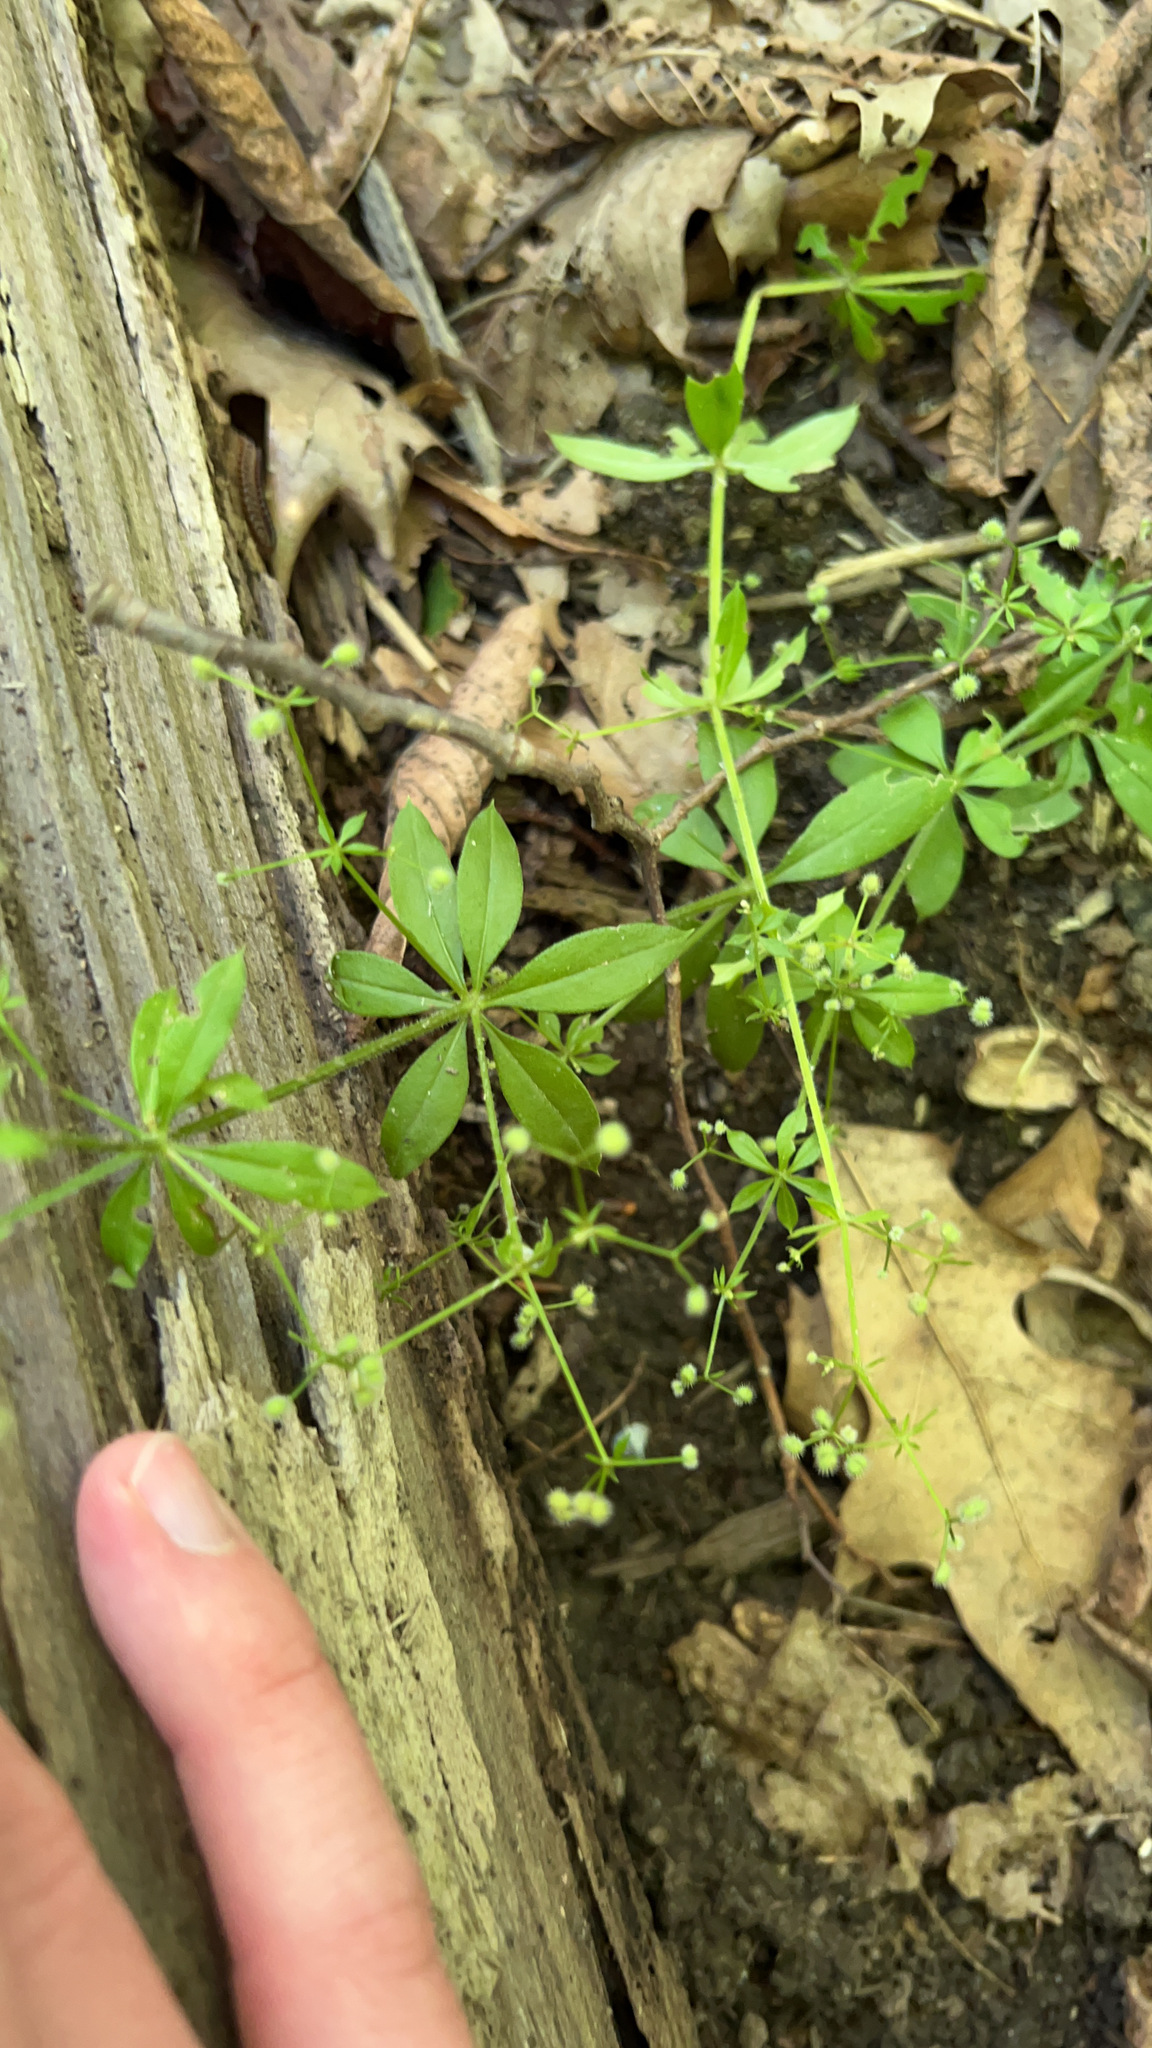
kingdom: Plantae
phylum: Tracheophyta
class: Magnoliopsida
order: Gentianales
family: Rubiaceae
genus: Galium
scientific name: Galium triflorum
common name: Fragrant bedstraw
